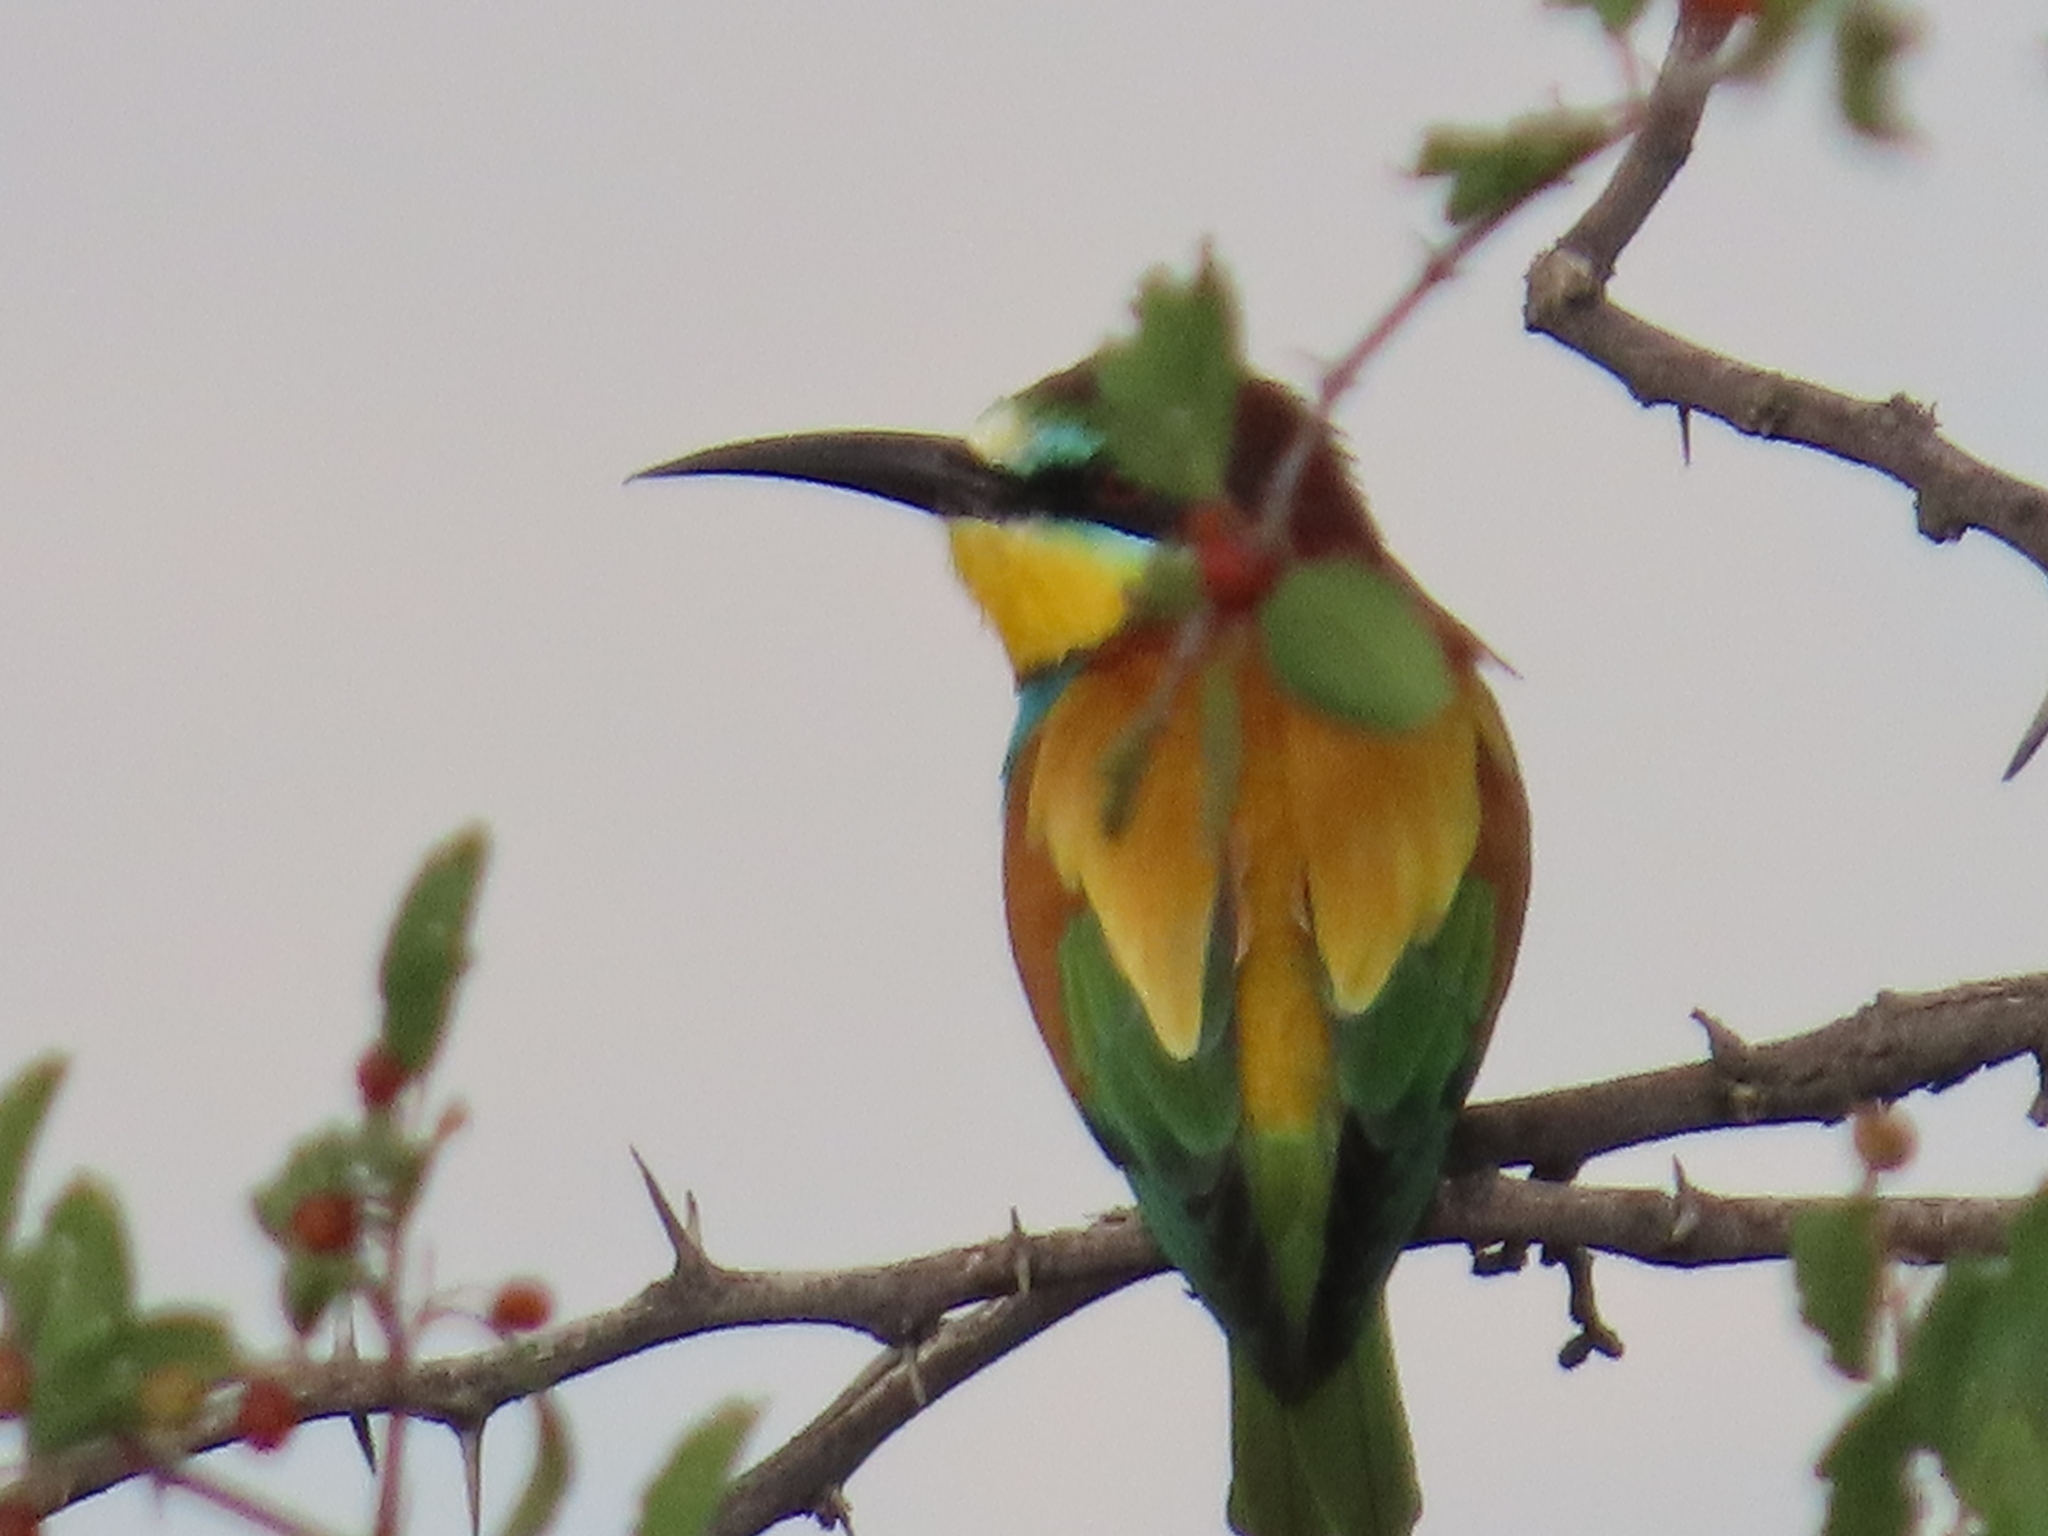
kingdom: Animalia
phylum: Chordata
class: Aves
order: Coraciiformes
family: Meropidae
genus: Merops
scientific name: Merops apiaster
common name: European bee-eater
